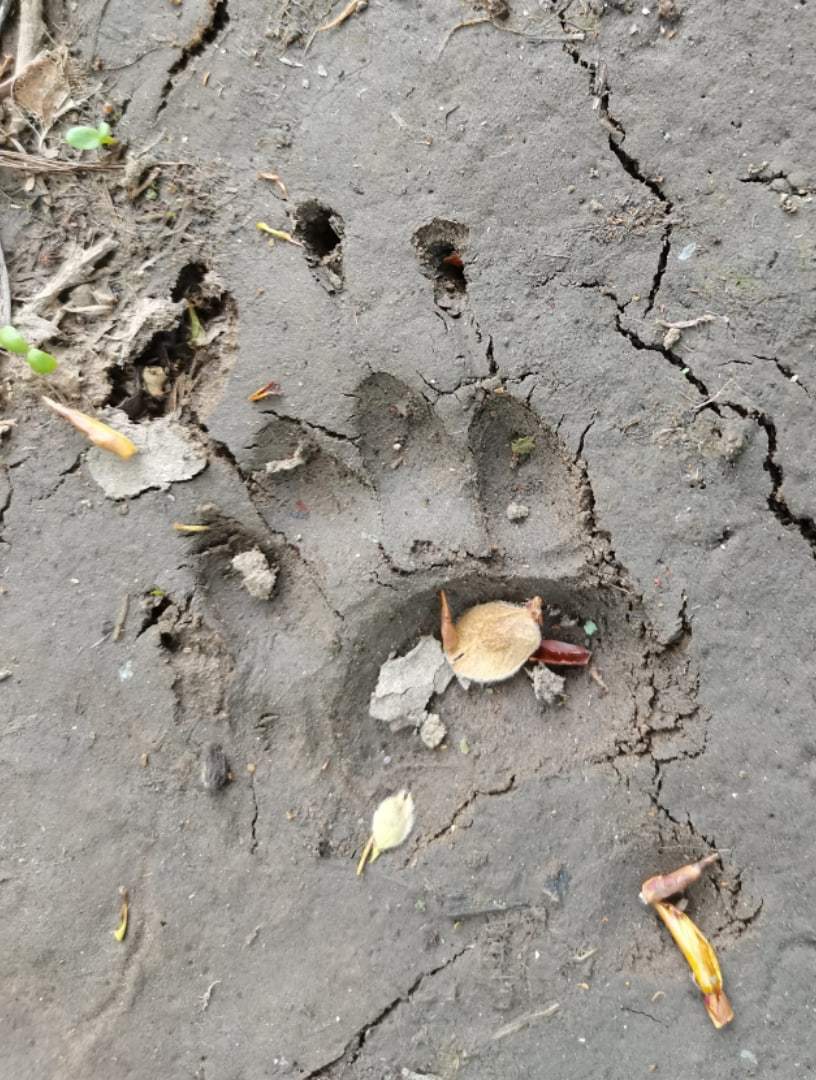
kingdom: Animalia
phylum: Chordata
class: Mammalia
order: Carnivora
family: Mustelidae
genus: Meles
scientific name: Meles leucurus
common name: Asian badger
